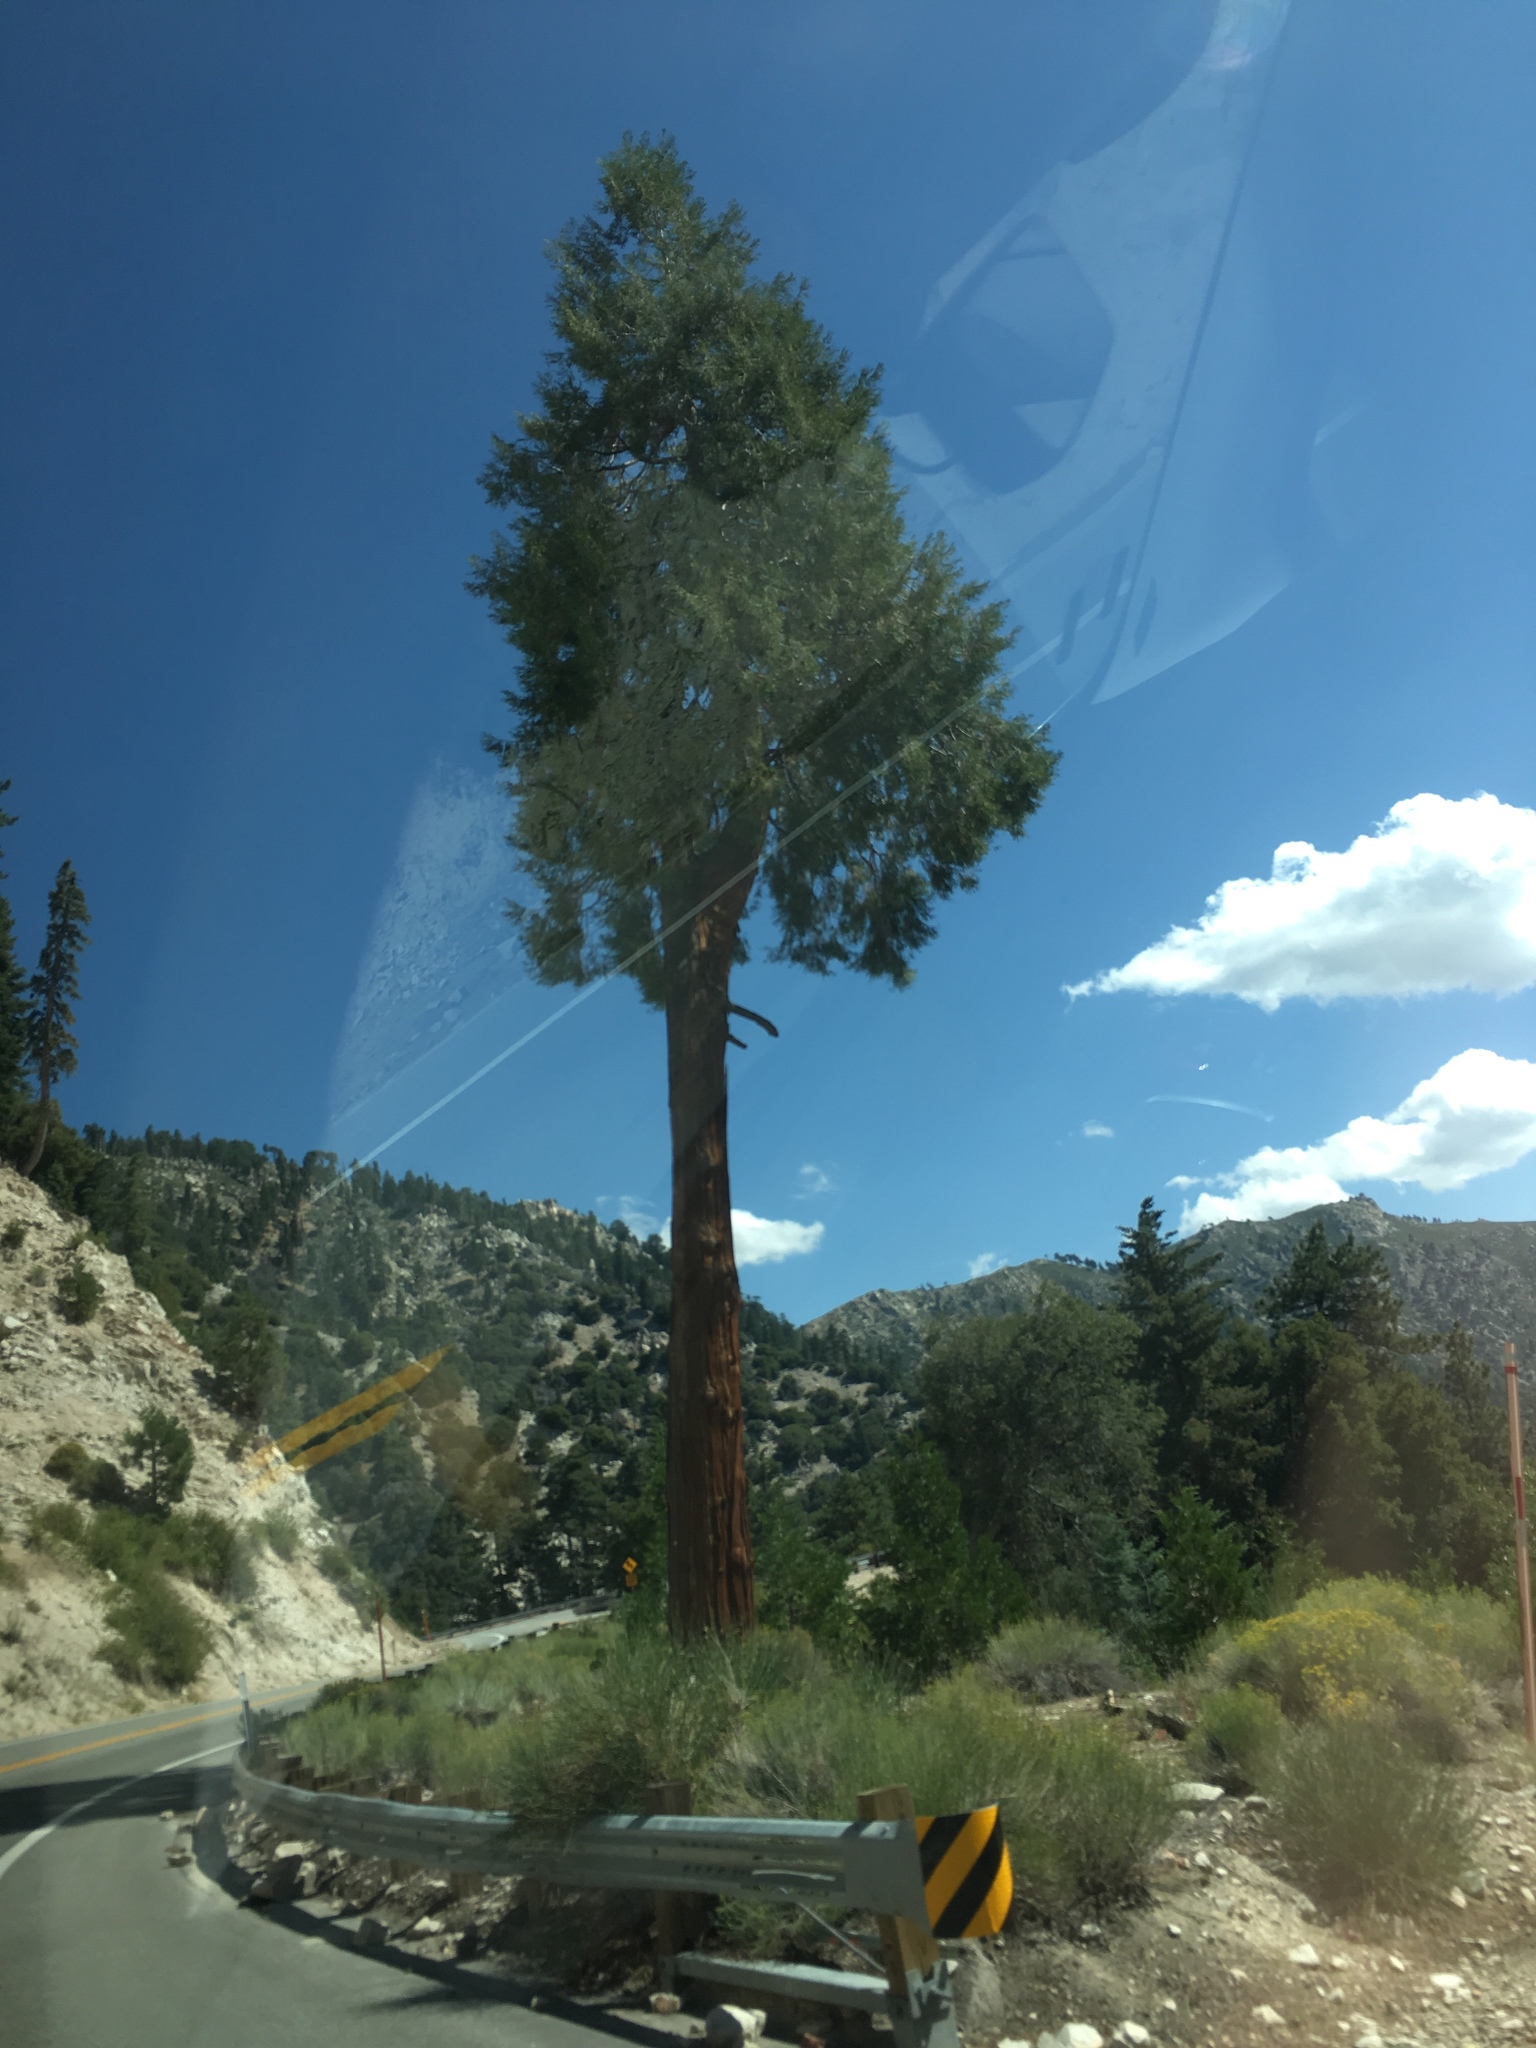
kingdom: Plantae
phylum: Tracheophyta
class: Pinopsida
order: Pinales
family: Cupressaceae
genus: Calocedrus
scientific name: Calocedrus decurrens
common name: Californian incense-cedar
